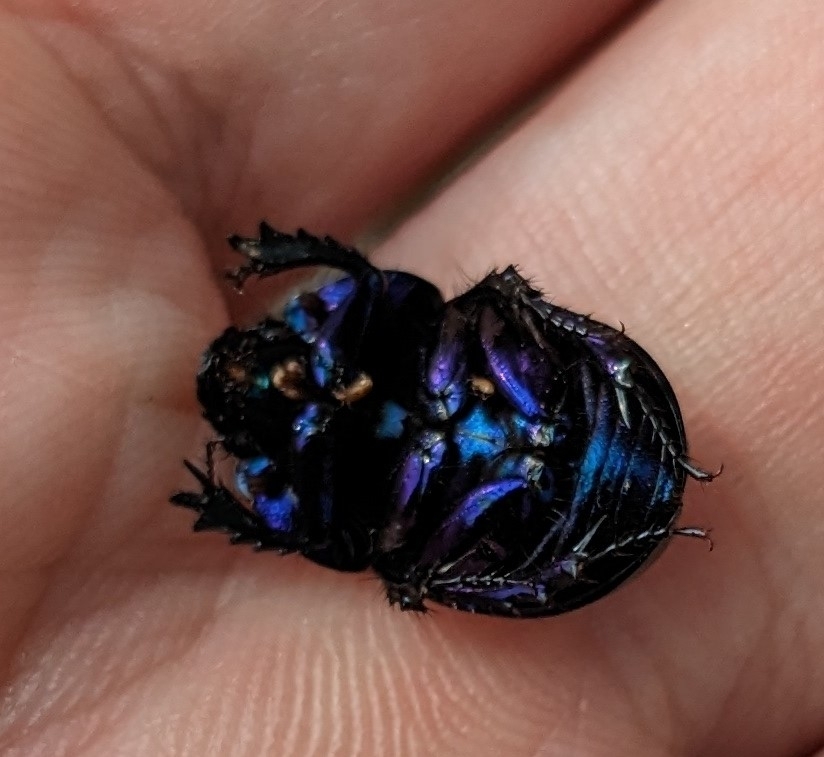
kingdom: Animalia
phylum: Arthropoda
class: Insecta
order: Coleoptera
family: Geotrupidae
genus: Anoplotrupes
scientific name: Anoplotrupes stercorosus
